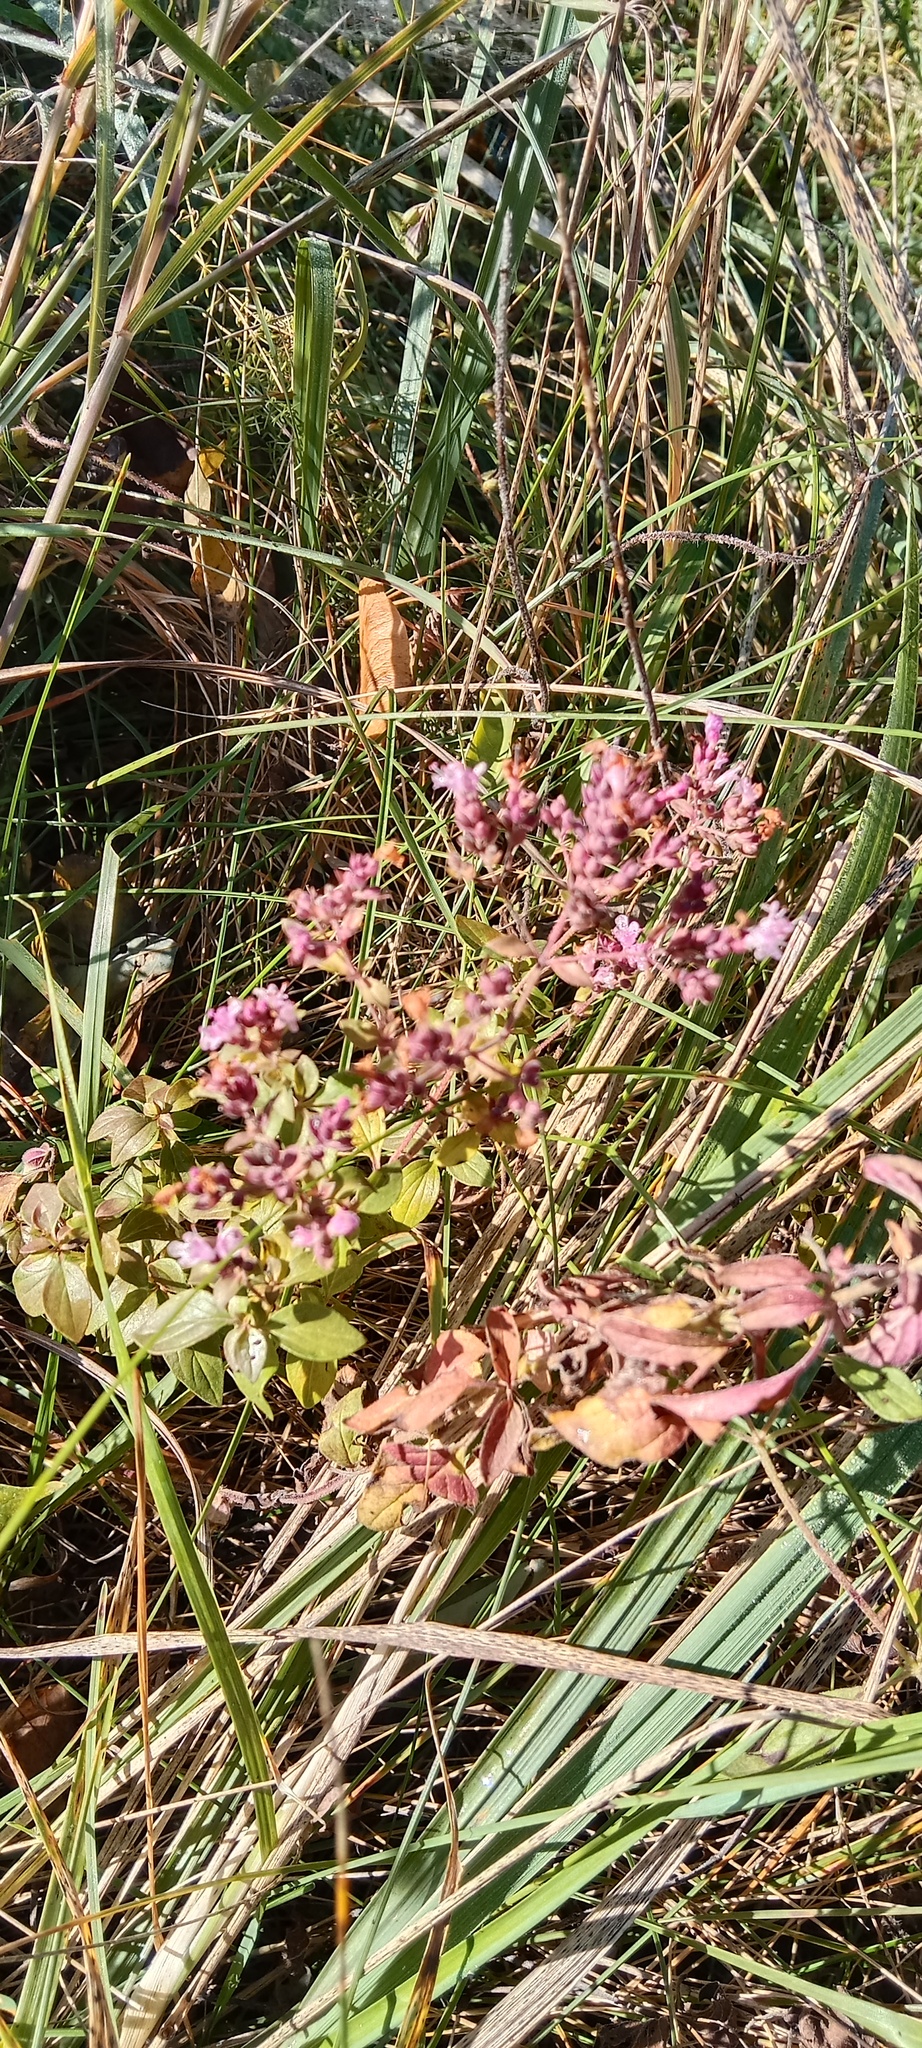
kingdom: Plantae
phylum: Tracheophyta
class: Magnoliopsida
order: Lamiales
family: Lamiaceae
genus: Origanum
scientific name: Origanum vulgare
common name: Wild marjoram
